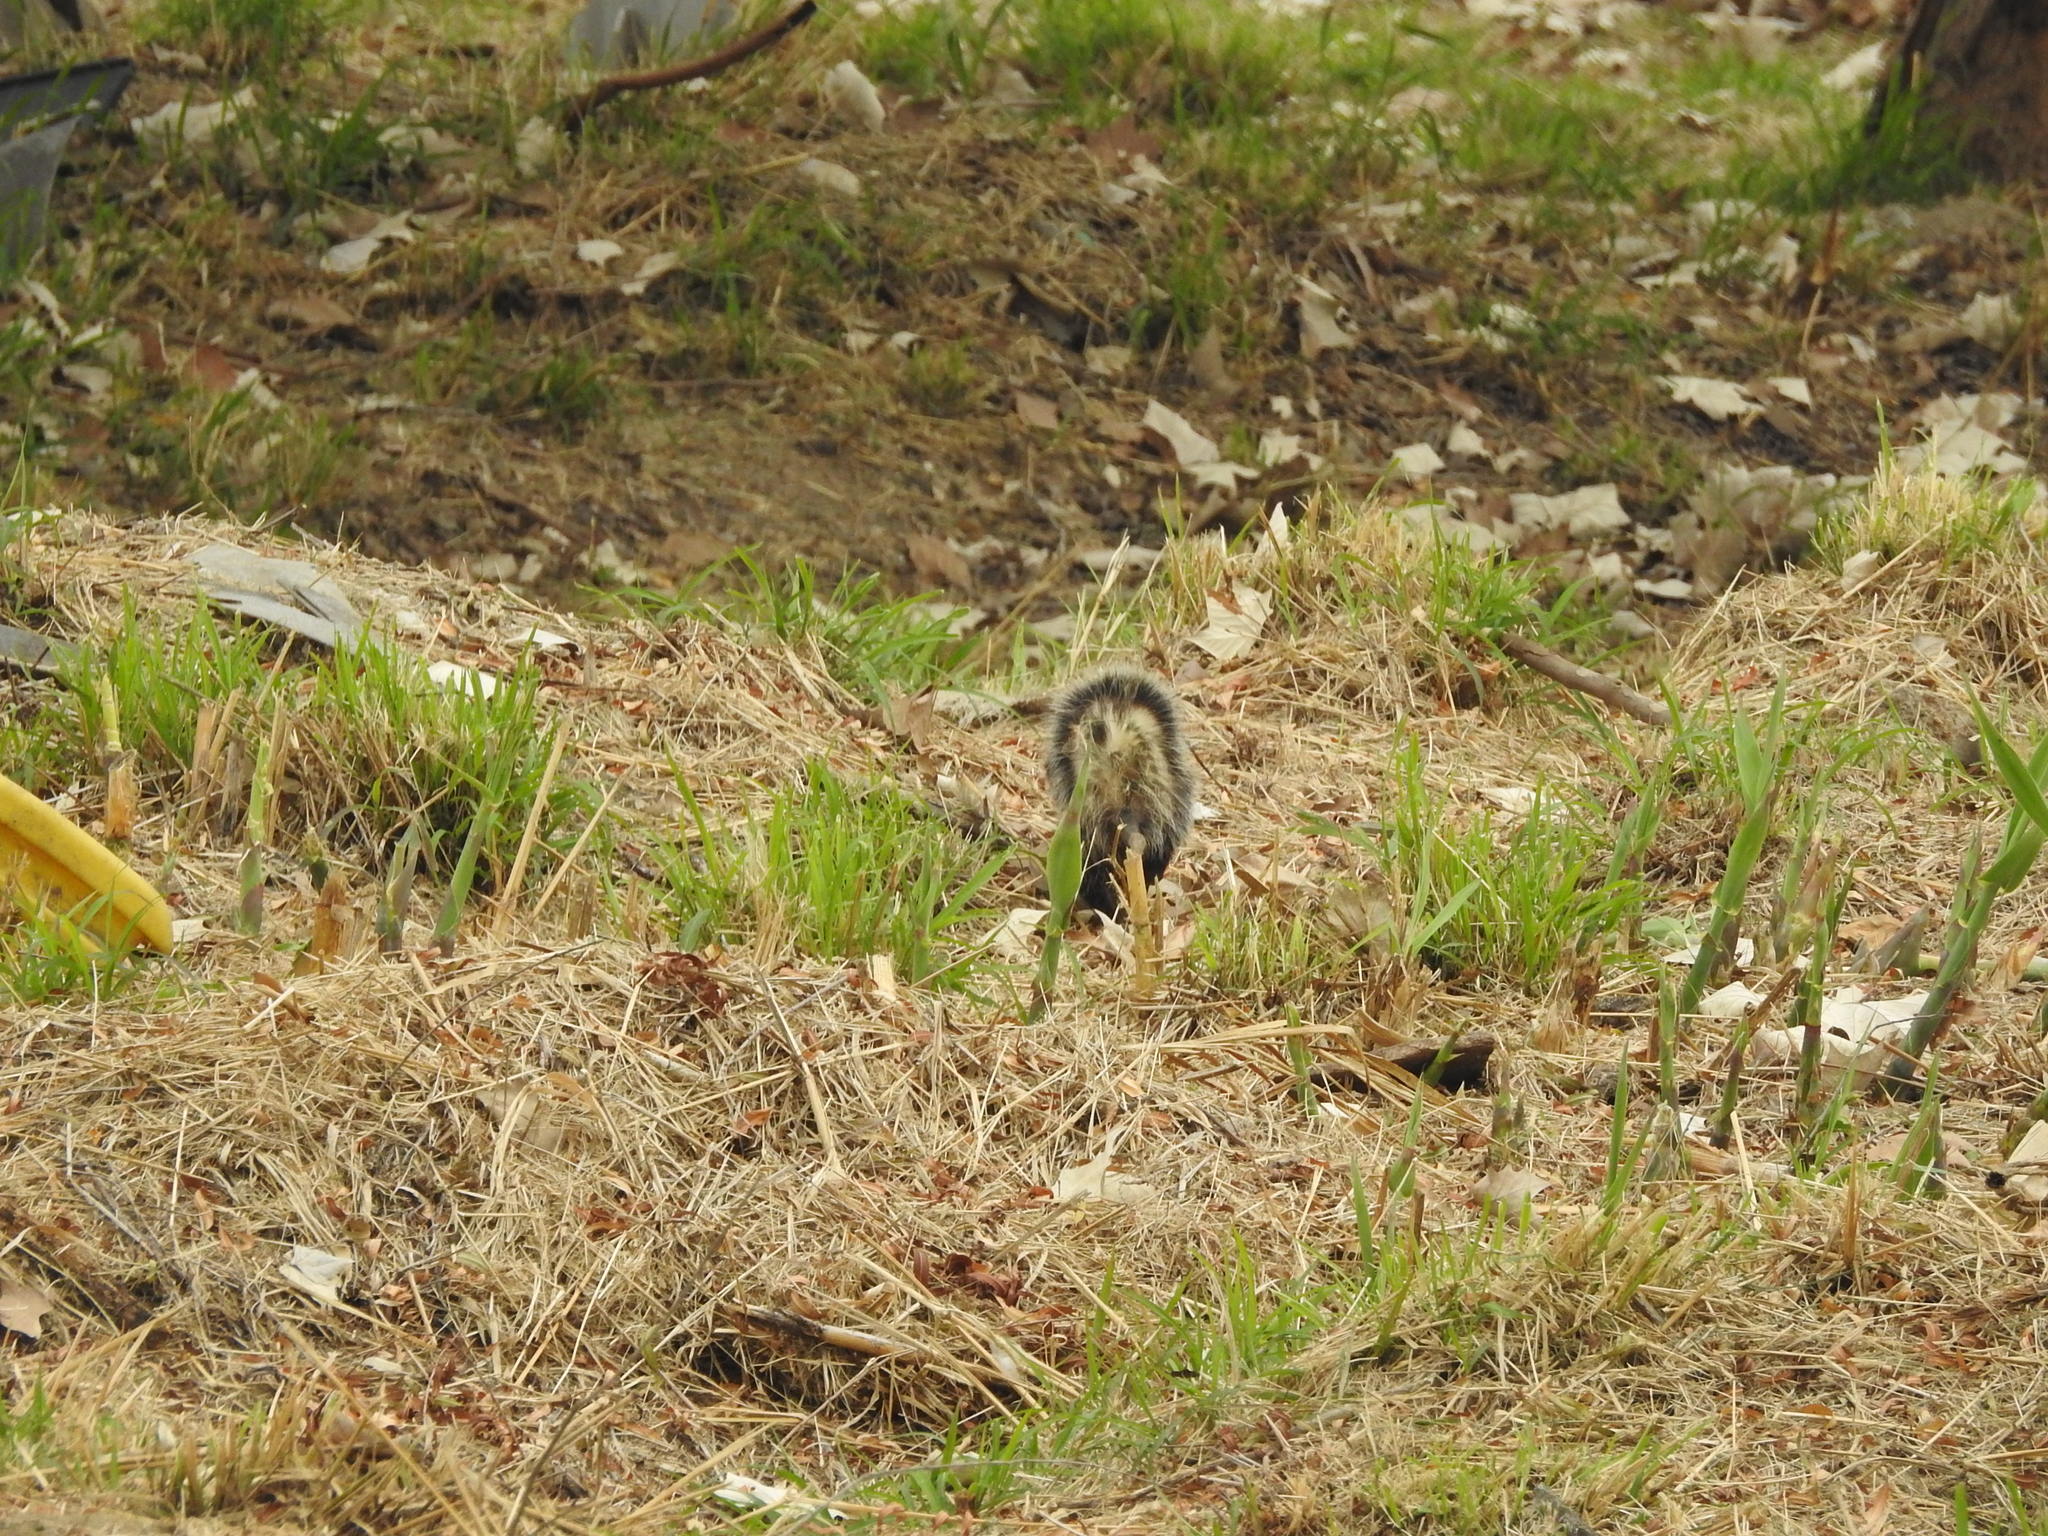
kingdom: Animalia
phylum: Chordata
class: Mammalia
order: Didelphimorphia
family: Didelphidae
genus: Didelphis
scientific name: Didelphis virginiana
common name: Virginia opossum
